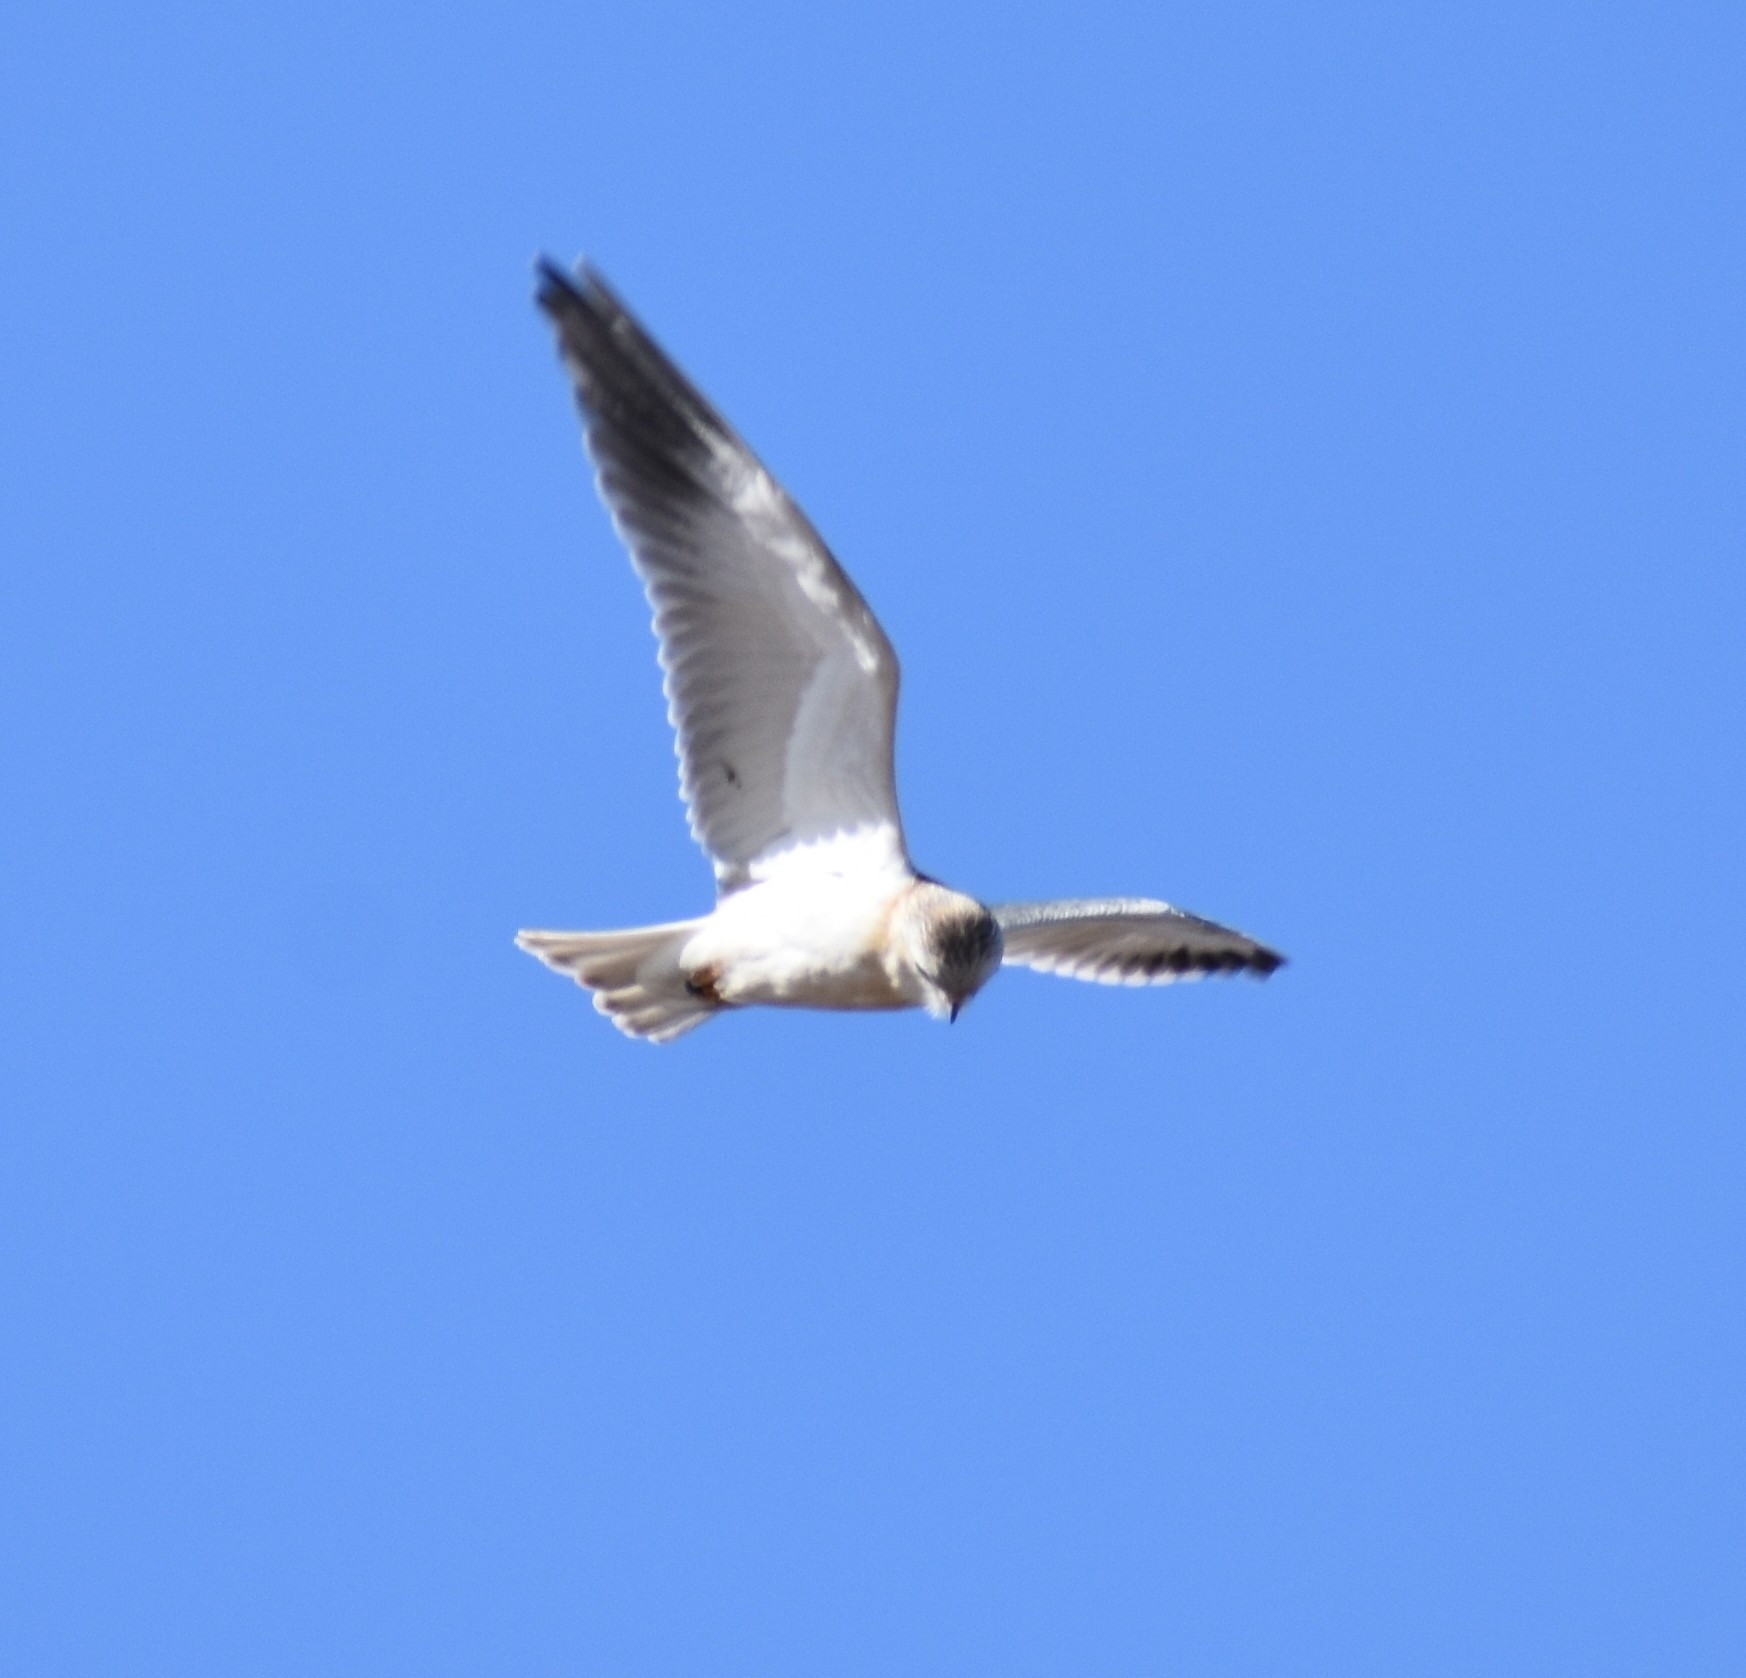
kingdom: Animalia
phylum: Chordata
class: Aves
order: Accipitriformes
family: Accipitridae
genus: Elanus
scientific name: Elanus caeruleus
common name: Black-winged kite
